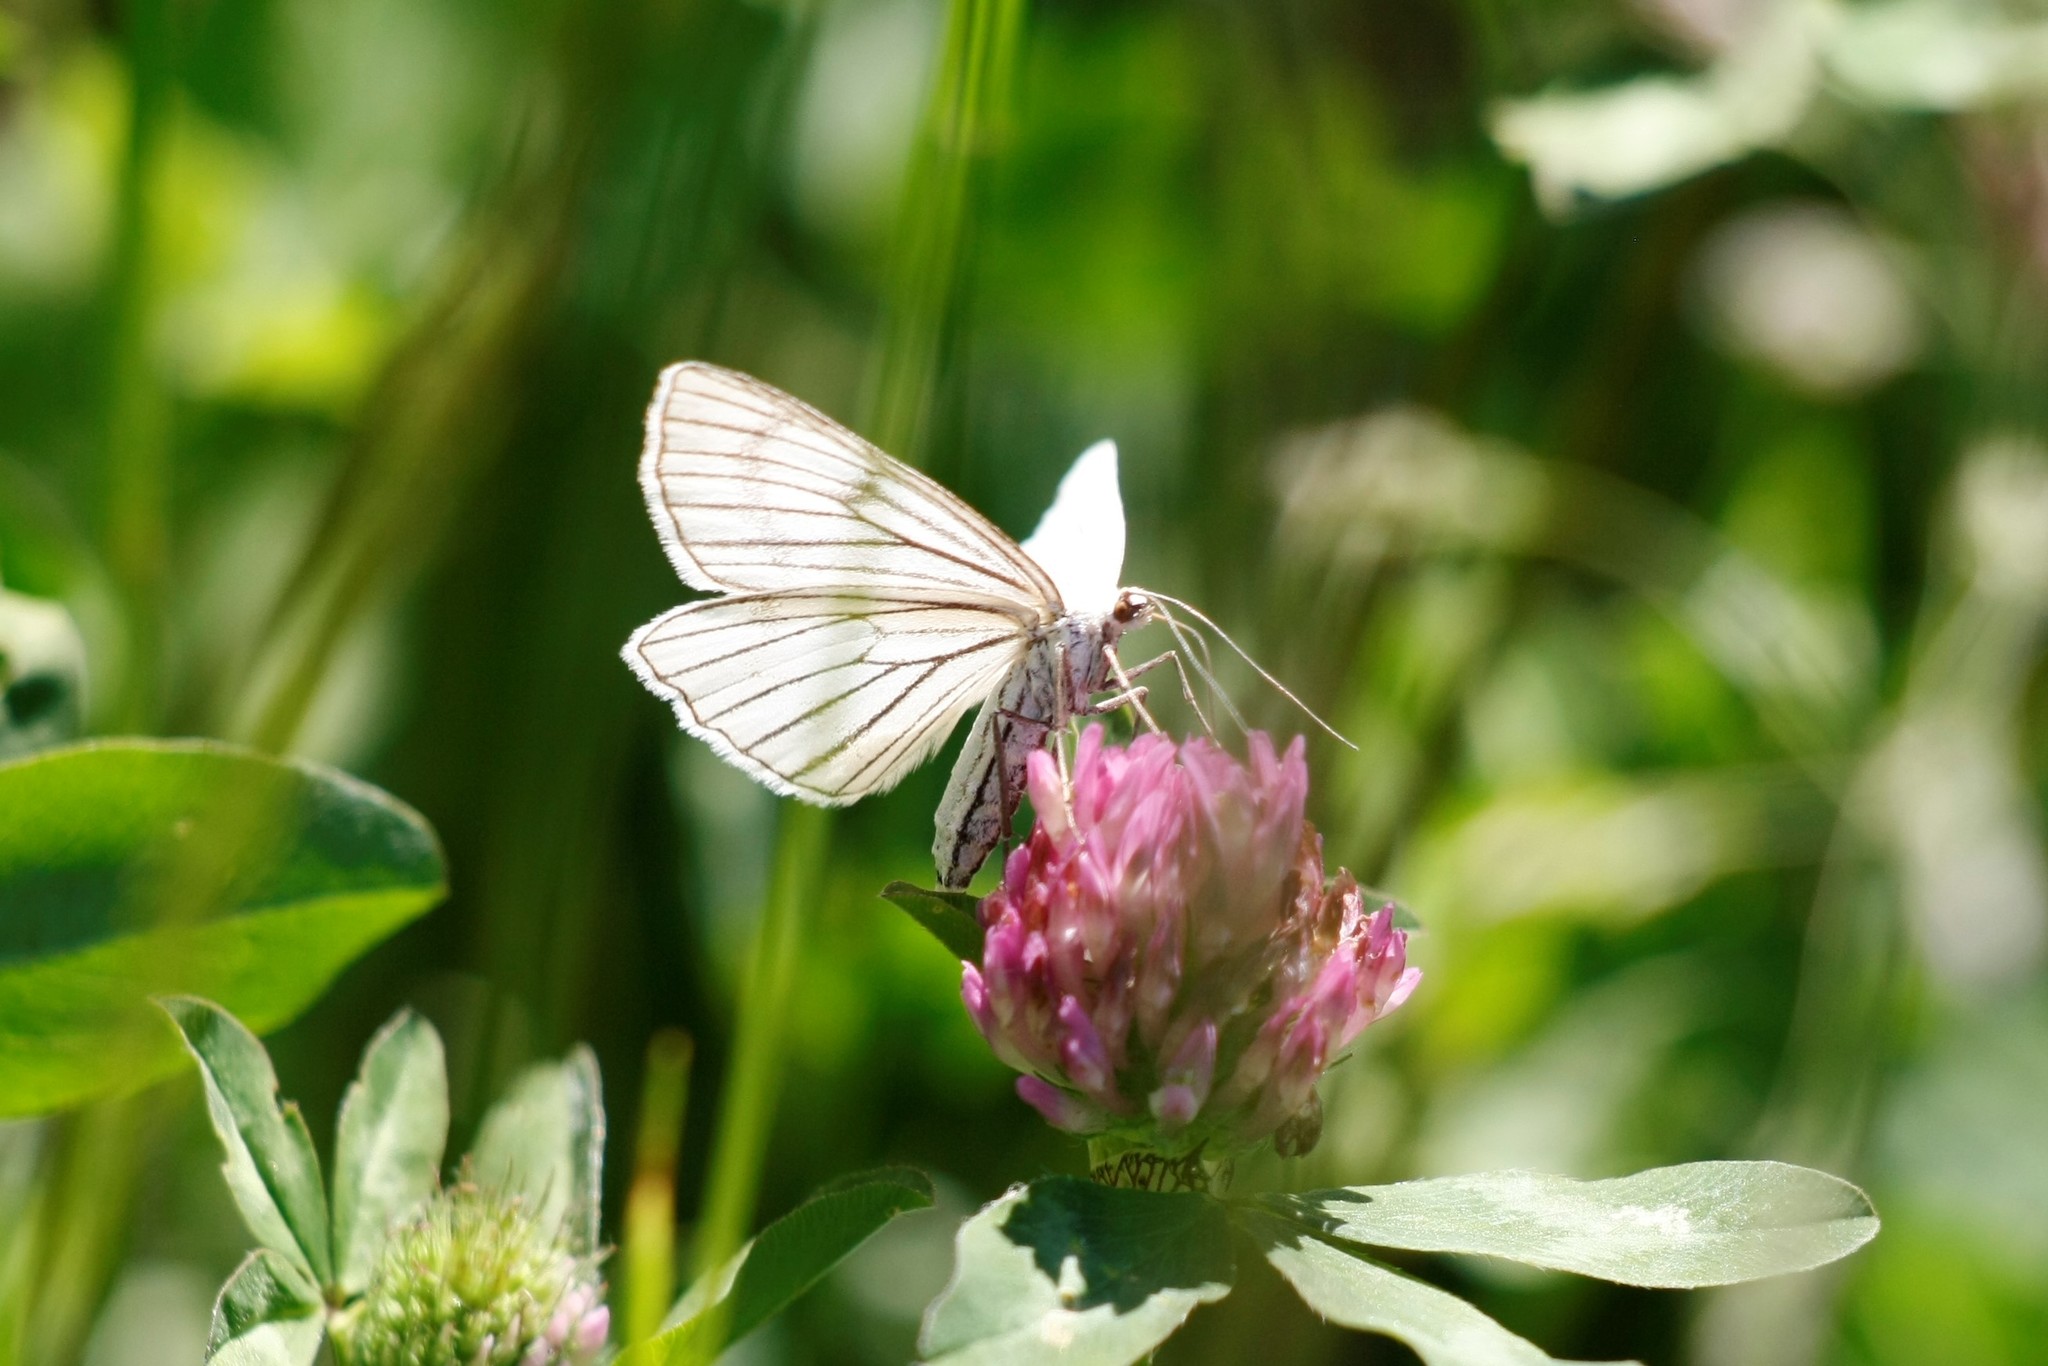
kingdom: Animalia
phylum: Arthropoda
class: Insecta
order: Lepidoptera
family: Geometridae
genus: Siona
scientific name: Siona lineata
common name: Black-veined moth
